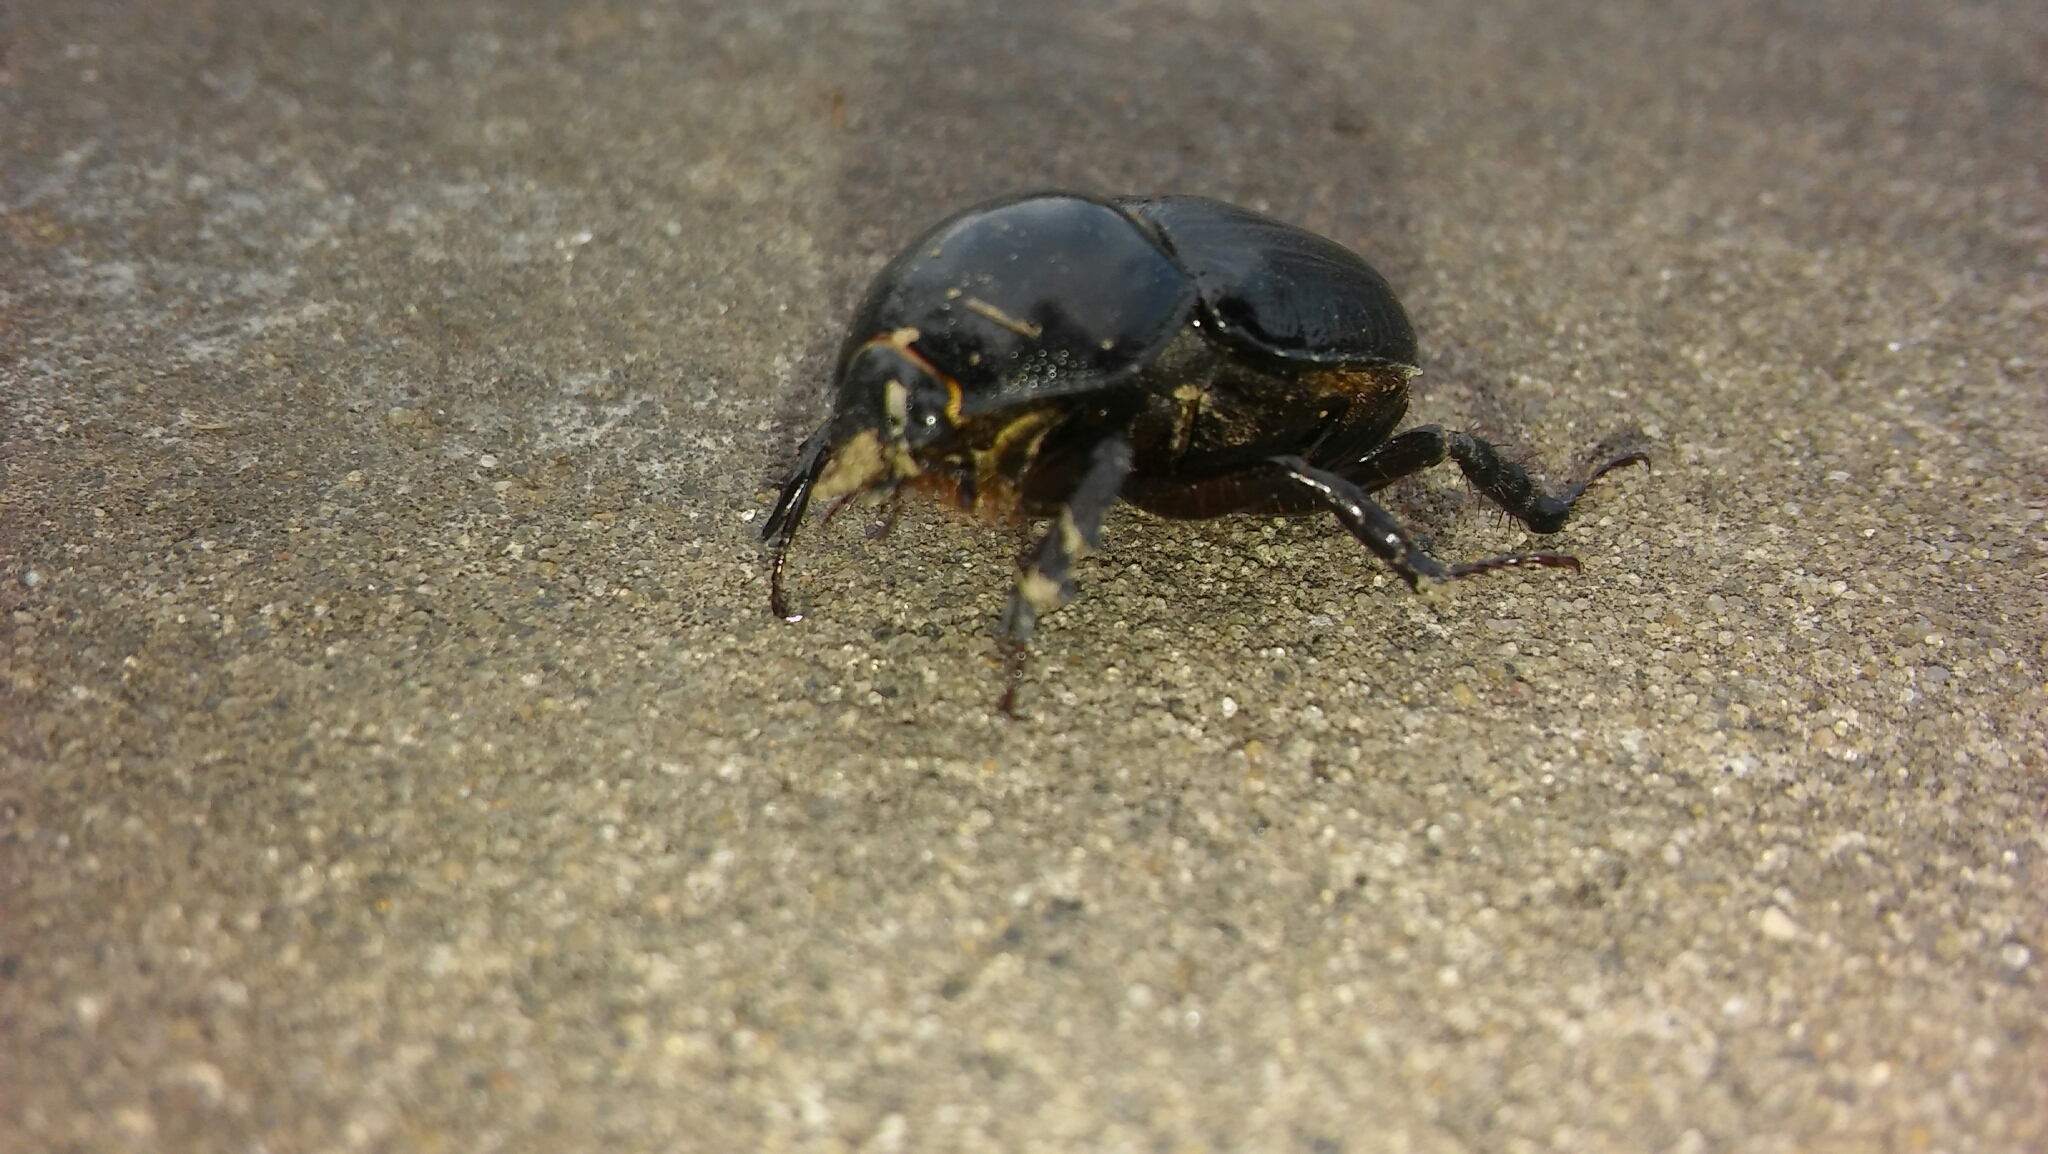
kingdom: Animalia
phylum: Arthropoda
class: Insecta
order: Coleoptera
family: Scarabaeidae
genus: Diloboderus
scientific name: Diloboderus abderus
